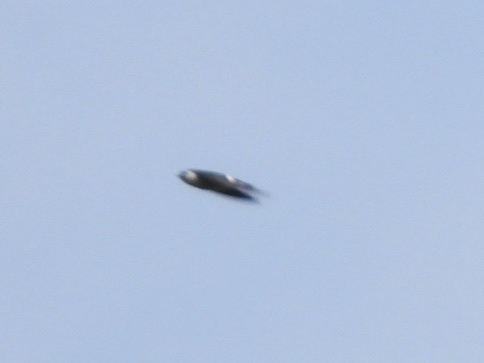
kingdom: Animalia
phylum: Chordata
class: Aves
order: Passeriformes
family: Hirundinidae
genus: Tachycineta
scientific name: Tachycineta thalassina
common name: Violet-green swallow
